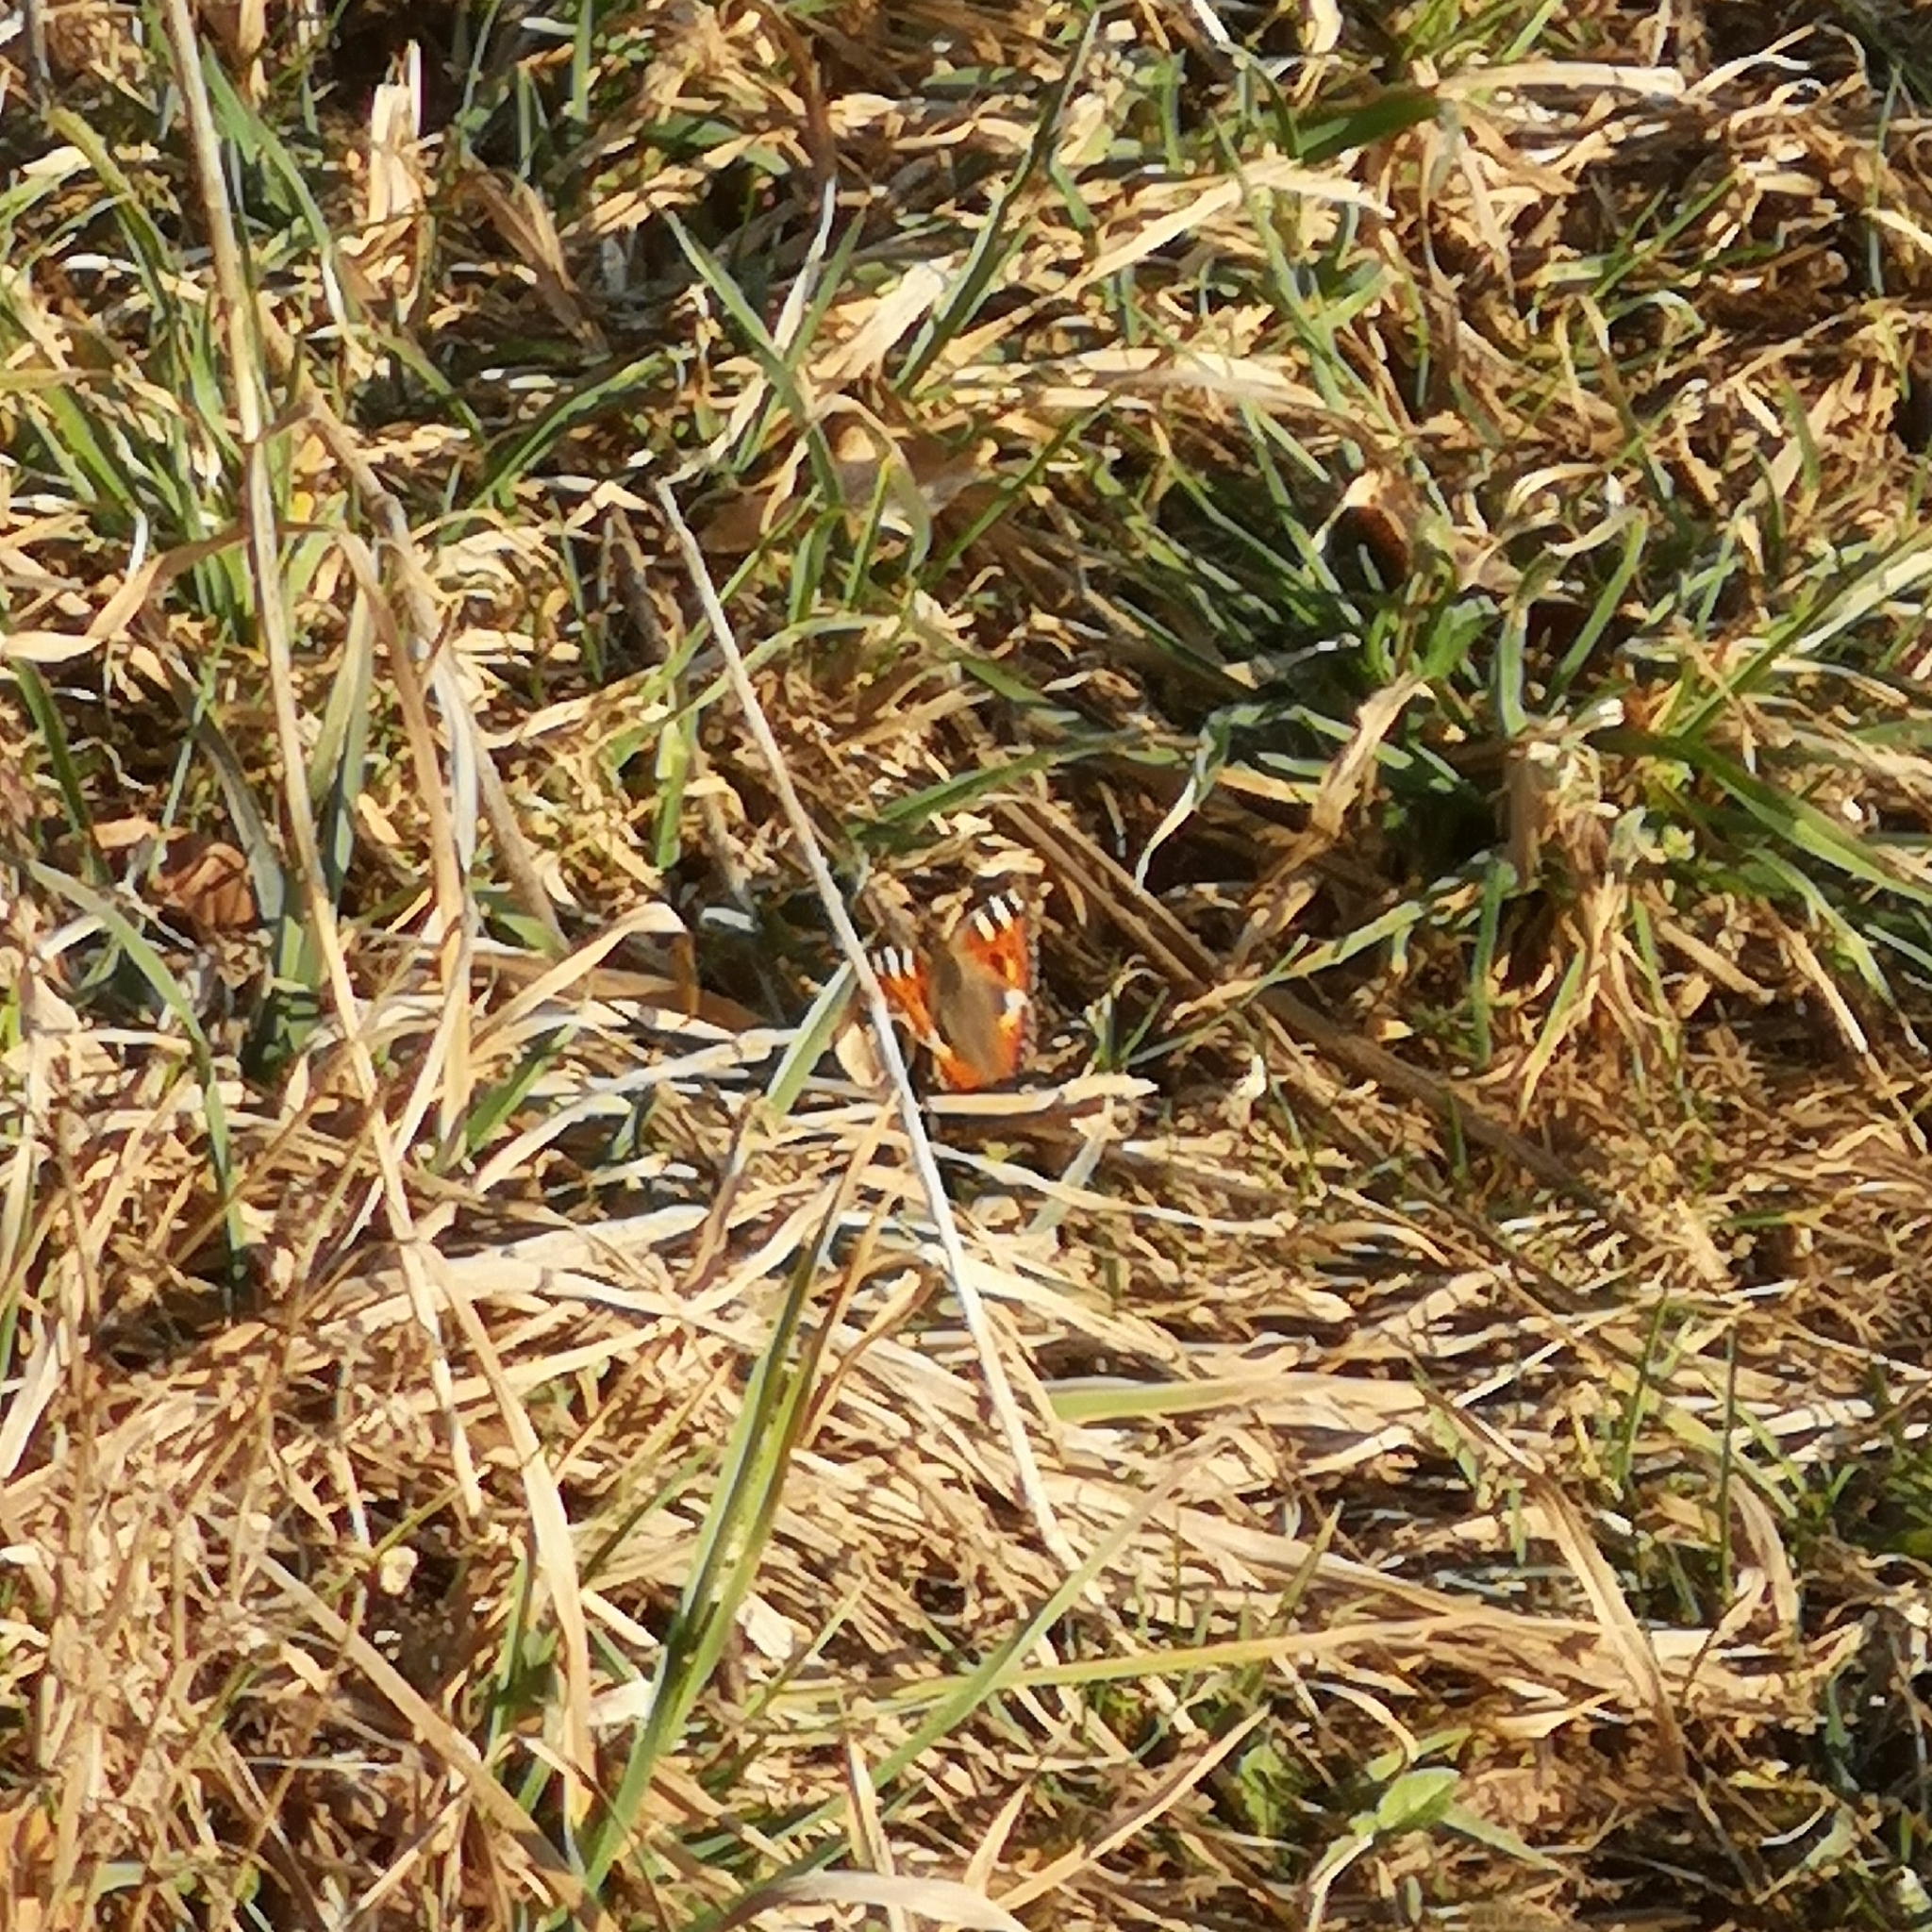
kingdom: Animalia
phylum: Arthropoda
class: Insecta
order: Lepidoptera
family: Nymphalidae
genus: Aglais
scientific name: Aglais urticae
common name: Small tortoiseshell
